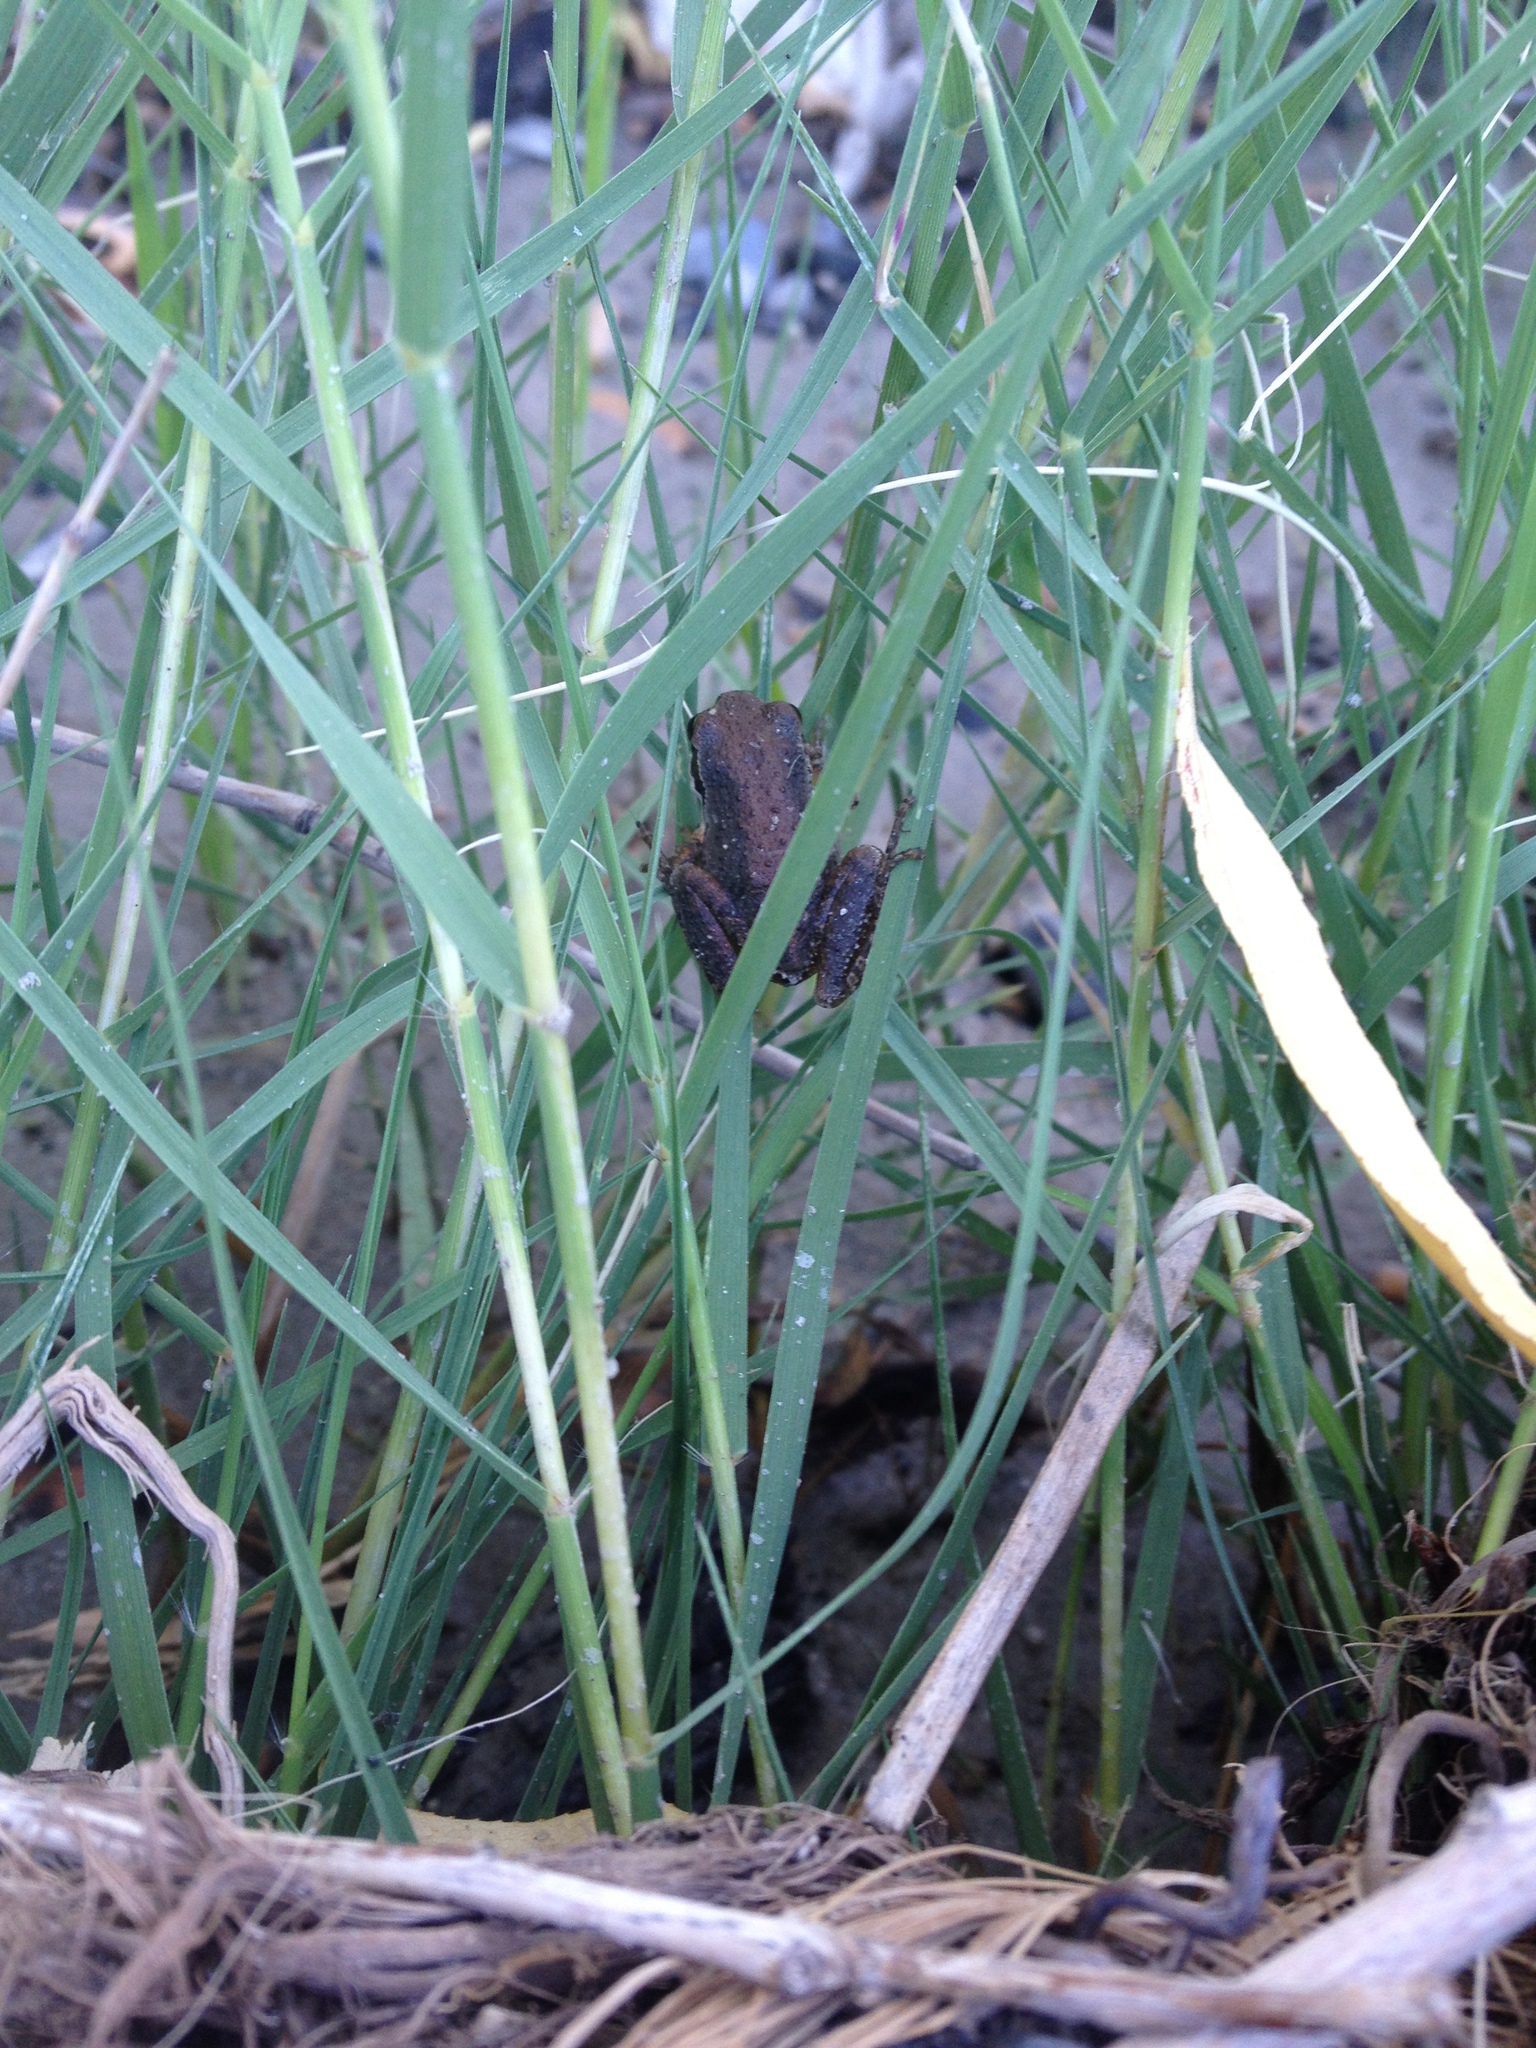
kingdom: Animalia
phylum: Chordata
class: Amphibia
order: Anura
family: Hylidae
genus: Pseudacris
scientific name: Pseudacris regilla
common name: Pacific chorus frog
